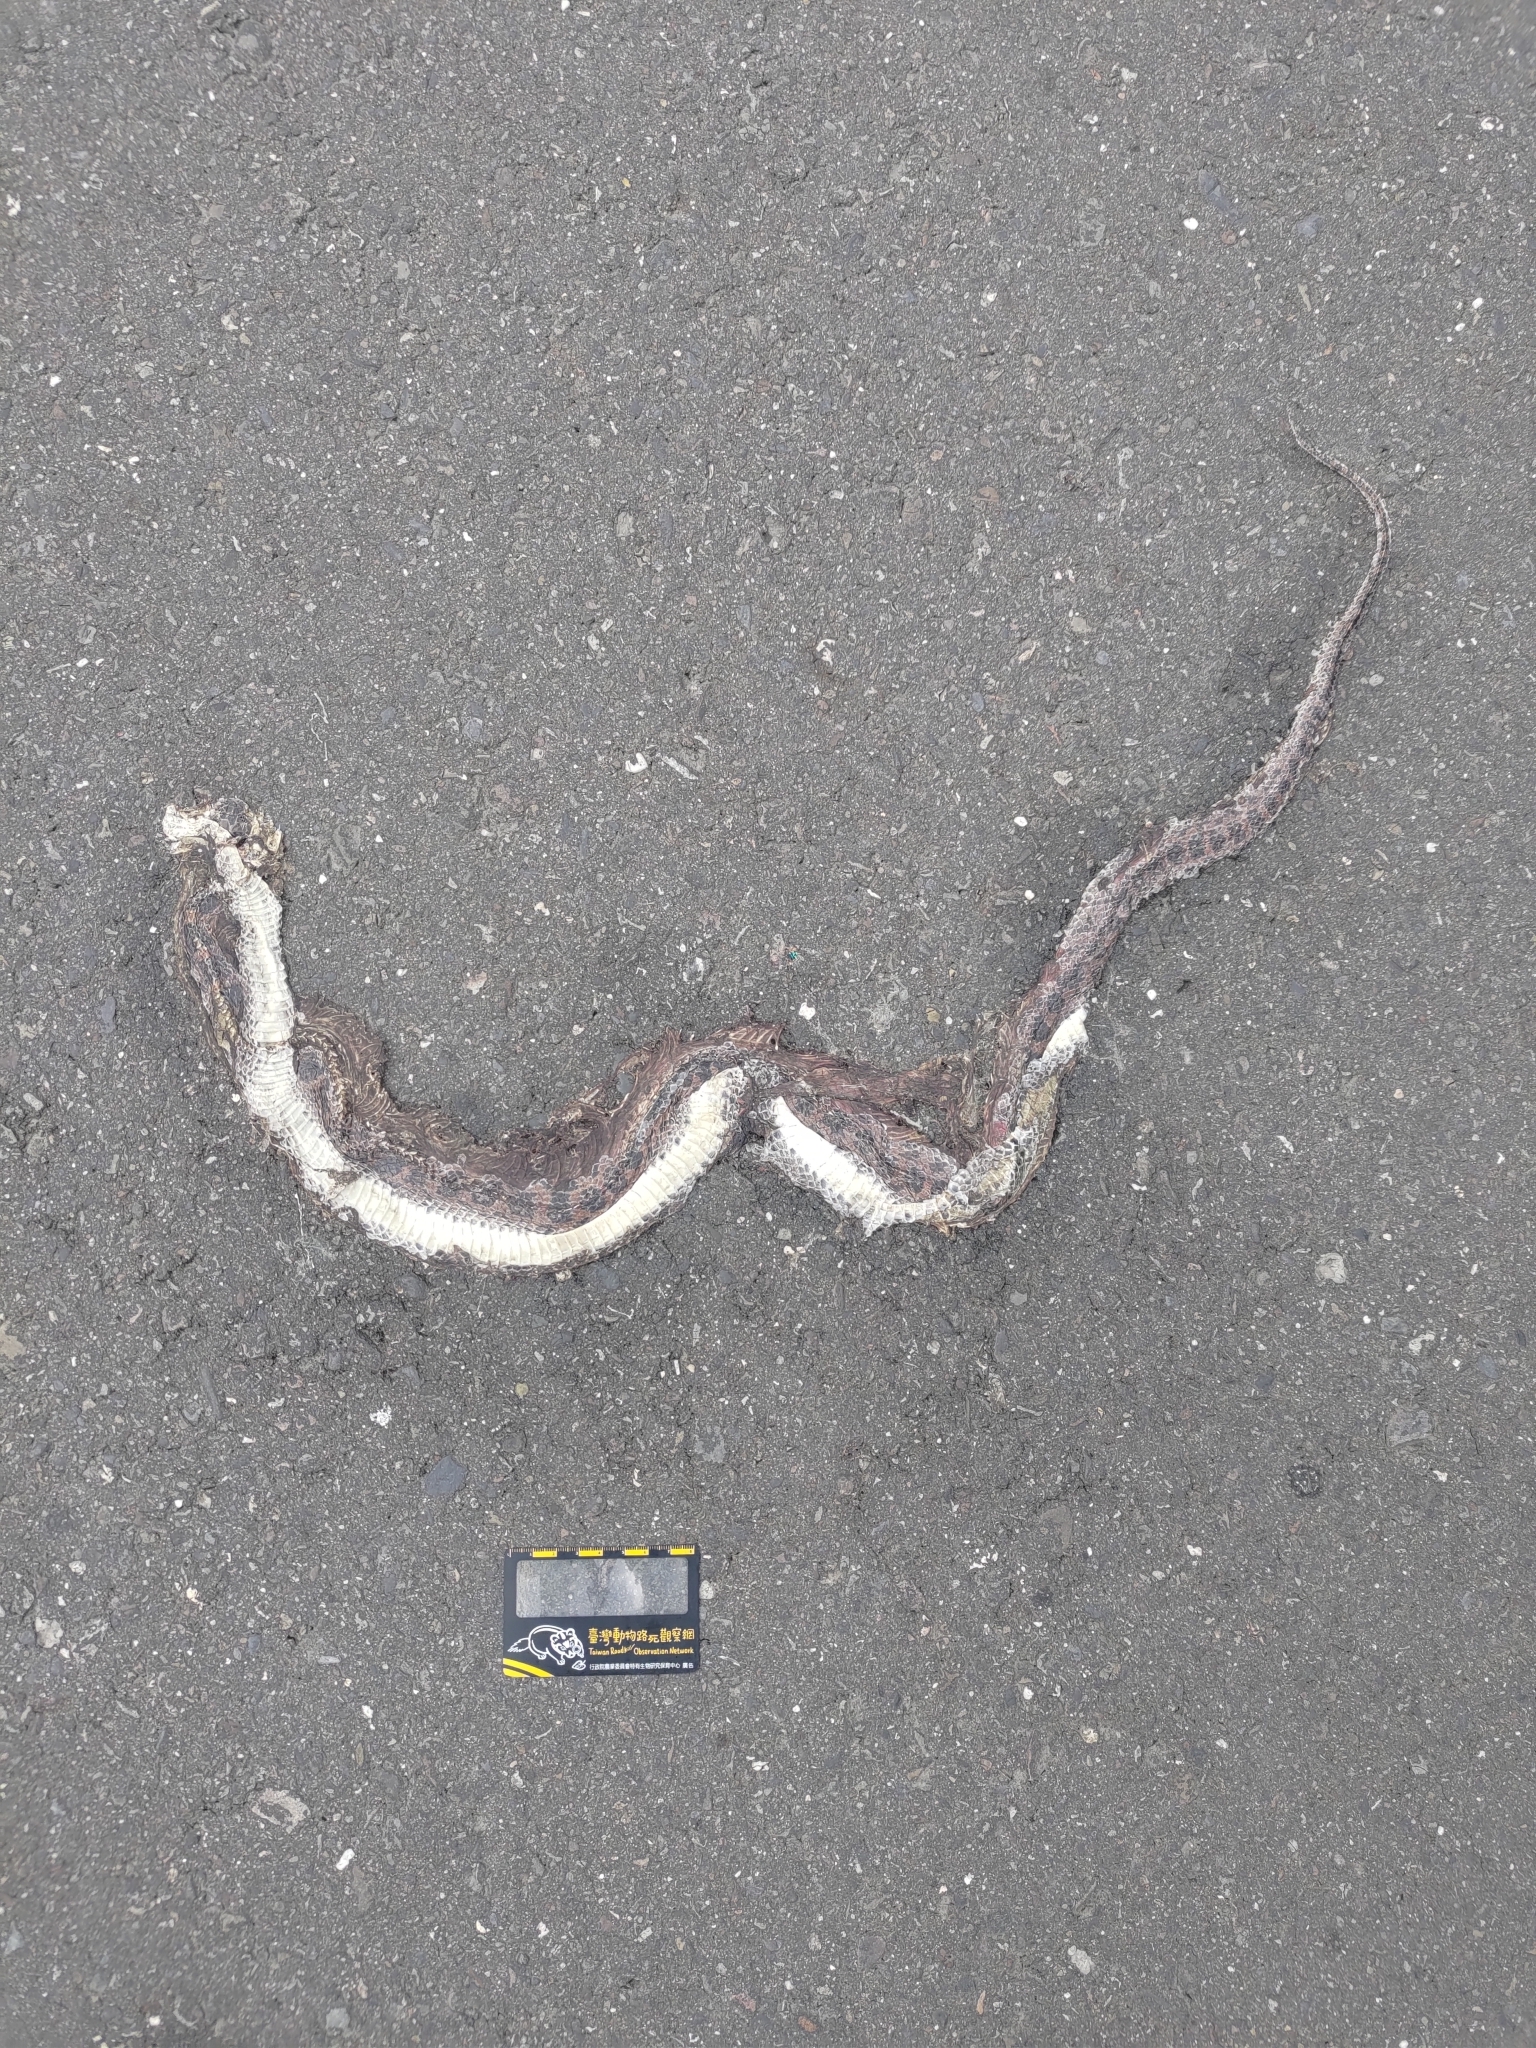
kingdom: Animalia
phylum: Chordata
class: Squamata
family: Colubridae
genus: Lycodon
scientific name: Lycodon rufozonatus
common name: Red-banded snake
